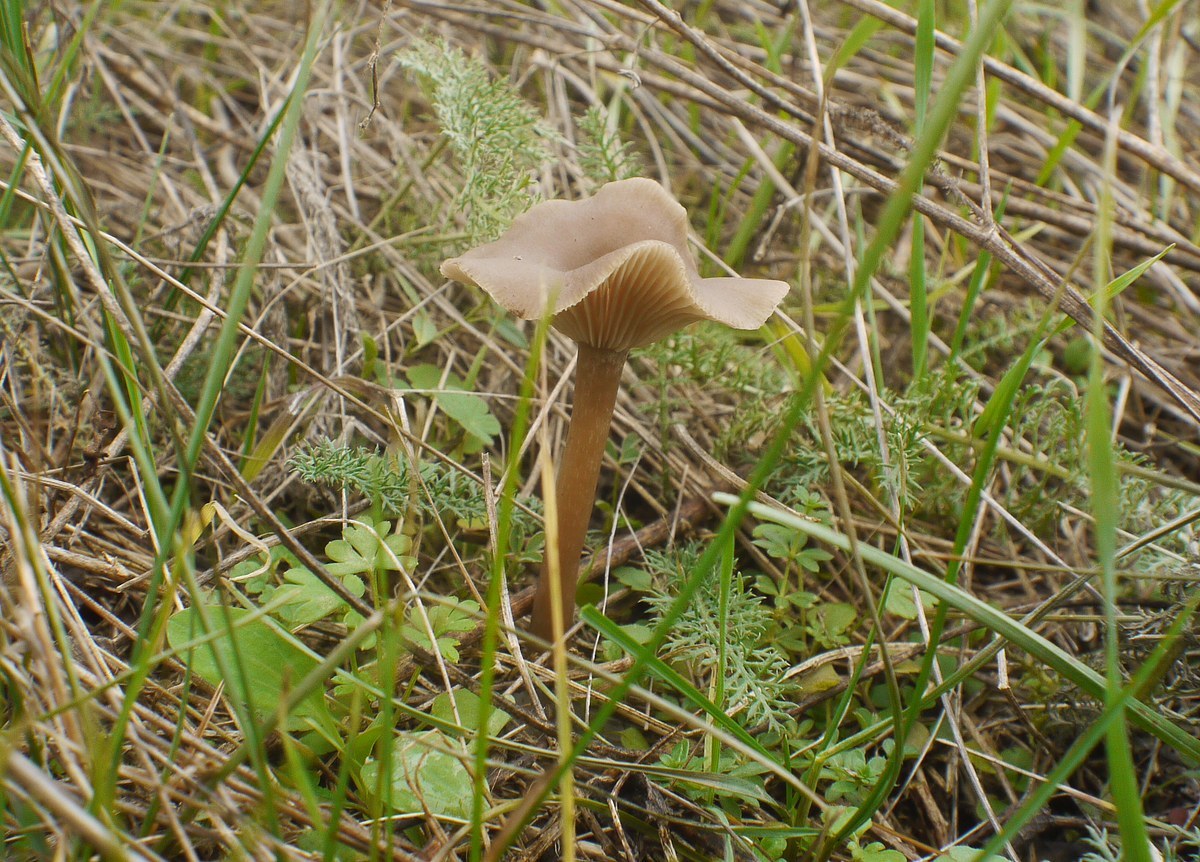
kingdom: Fungi
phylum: Basidiomycota
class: Agaricomycetes
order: Agaricales
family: Pseudoclitocybaceae
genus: Pseudoclitocybe
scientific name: Pseudoclitocybe cyathiformis
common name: Goblet
